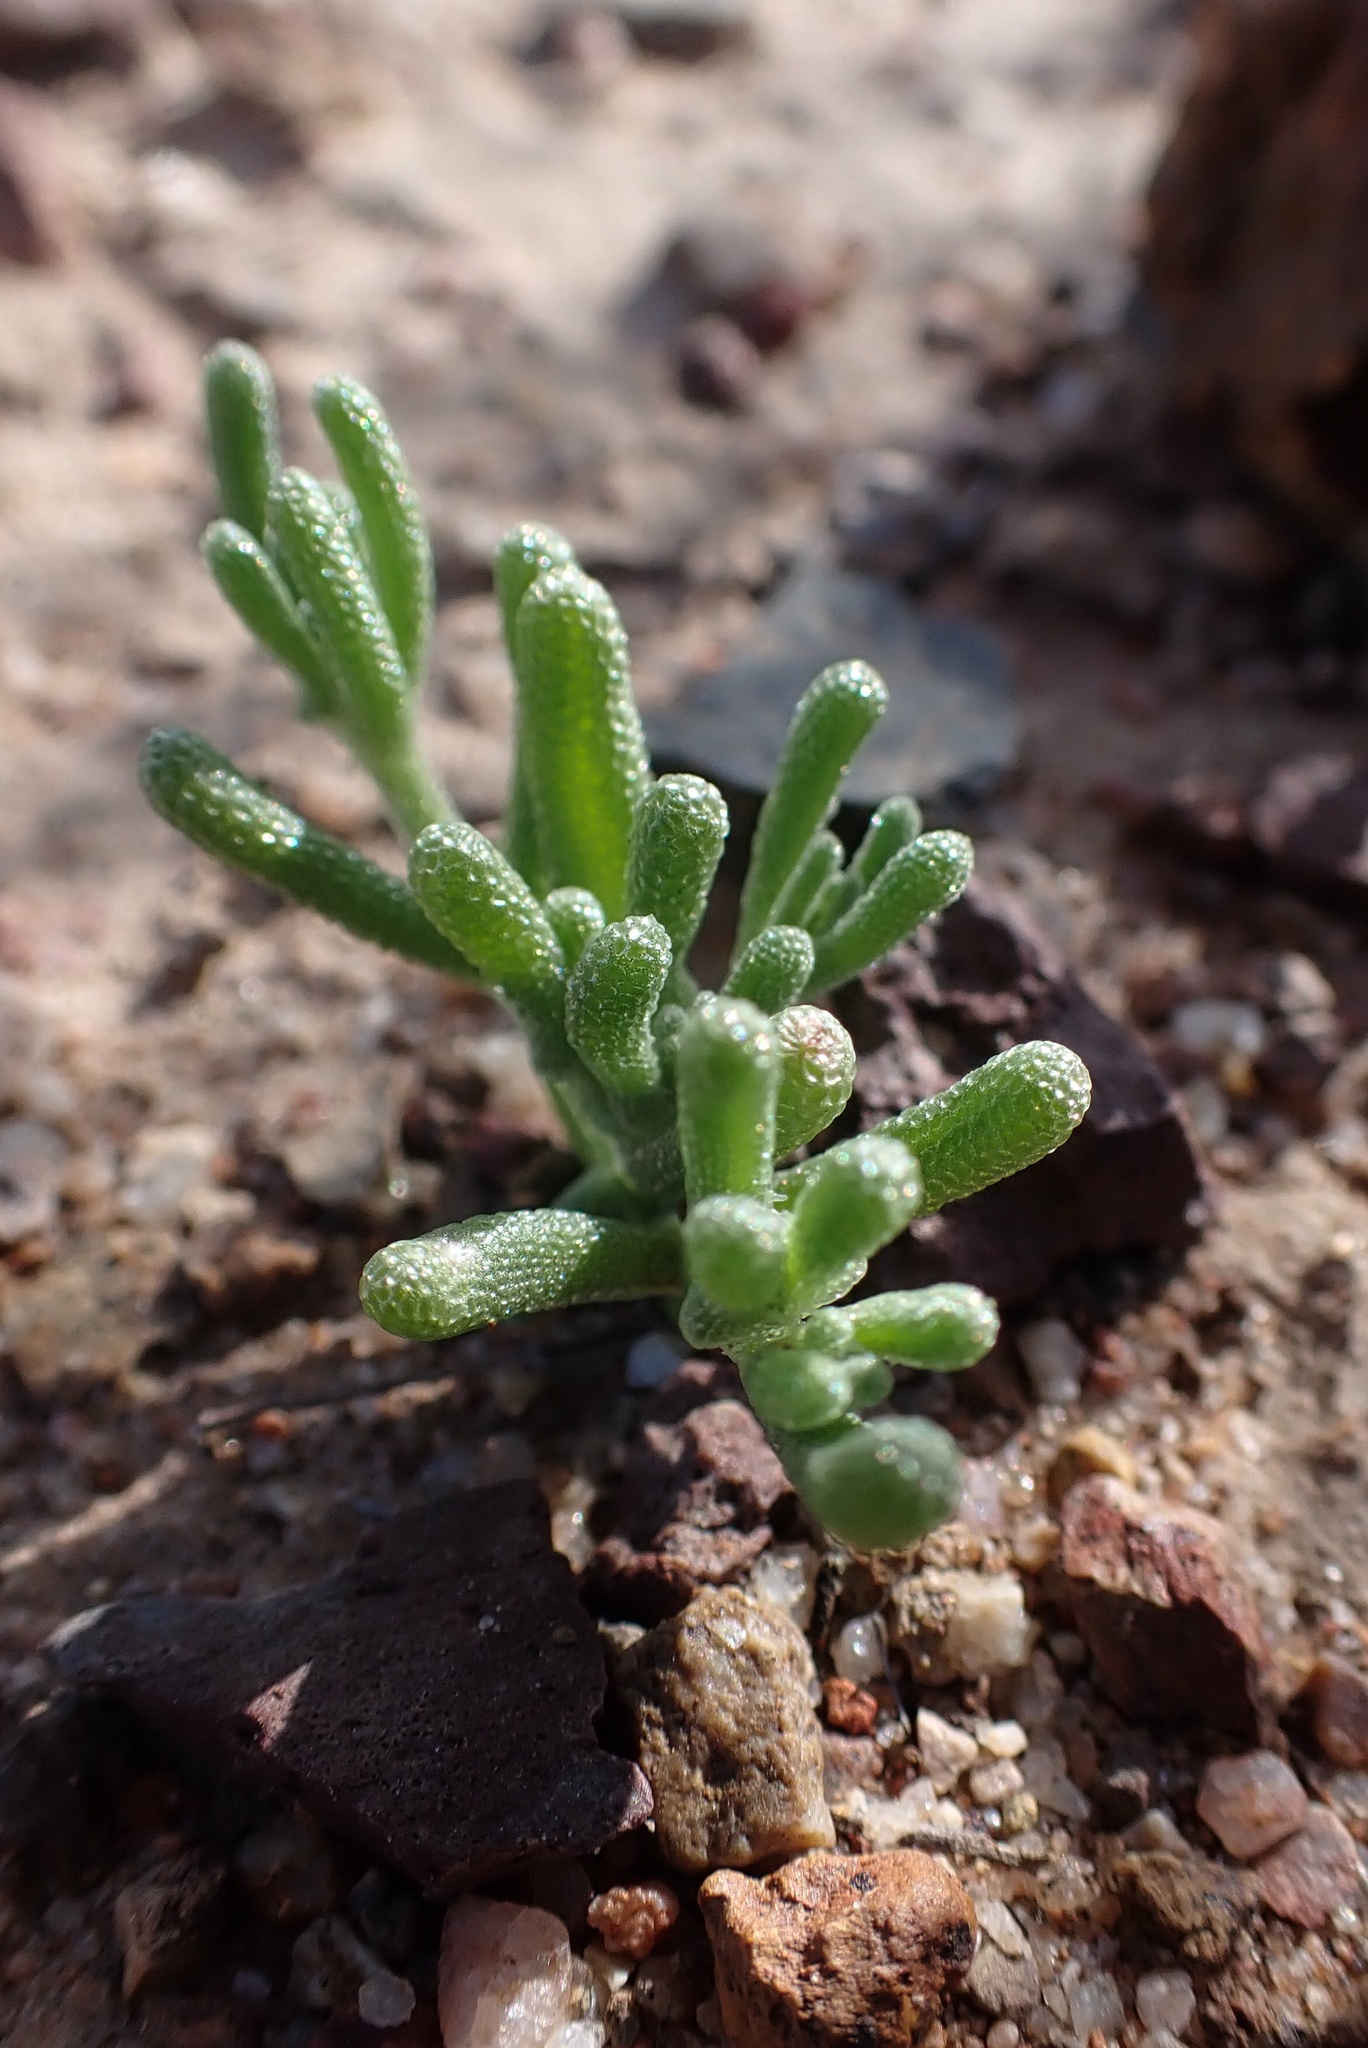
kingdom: Plantae
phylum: Tracheophyta
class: Magnoliopsida
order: Caryophyllales
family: Aizoaceae
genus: Mesembryanthemum
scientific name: Mesembryanthemum nodiflorum
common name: Slenderleaf iceplant
